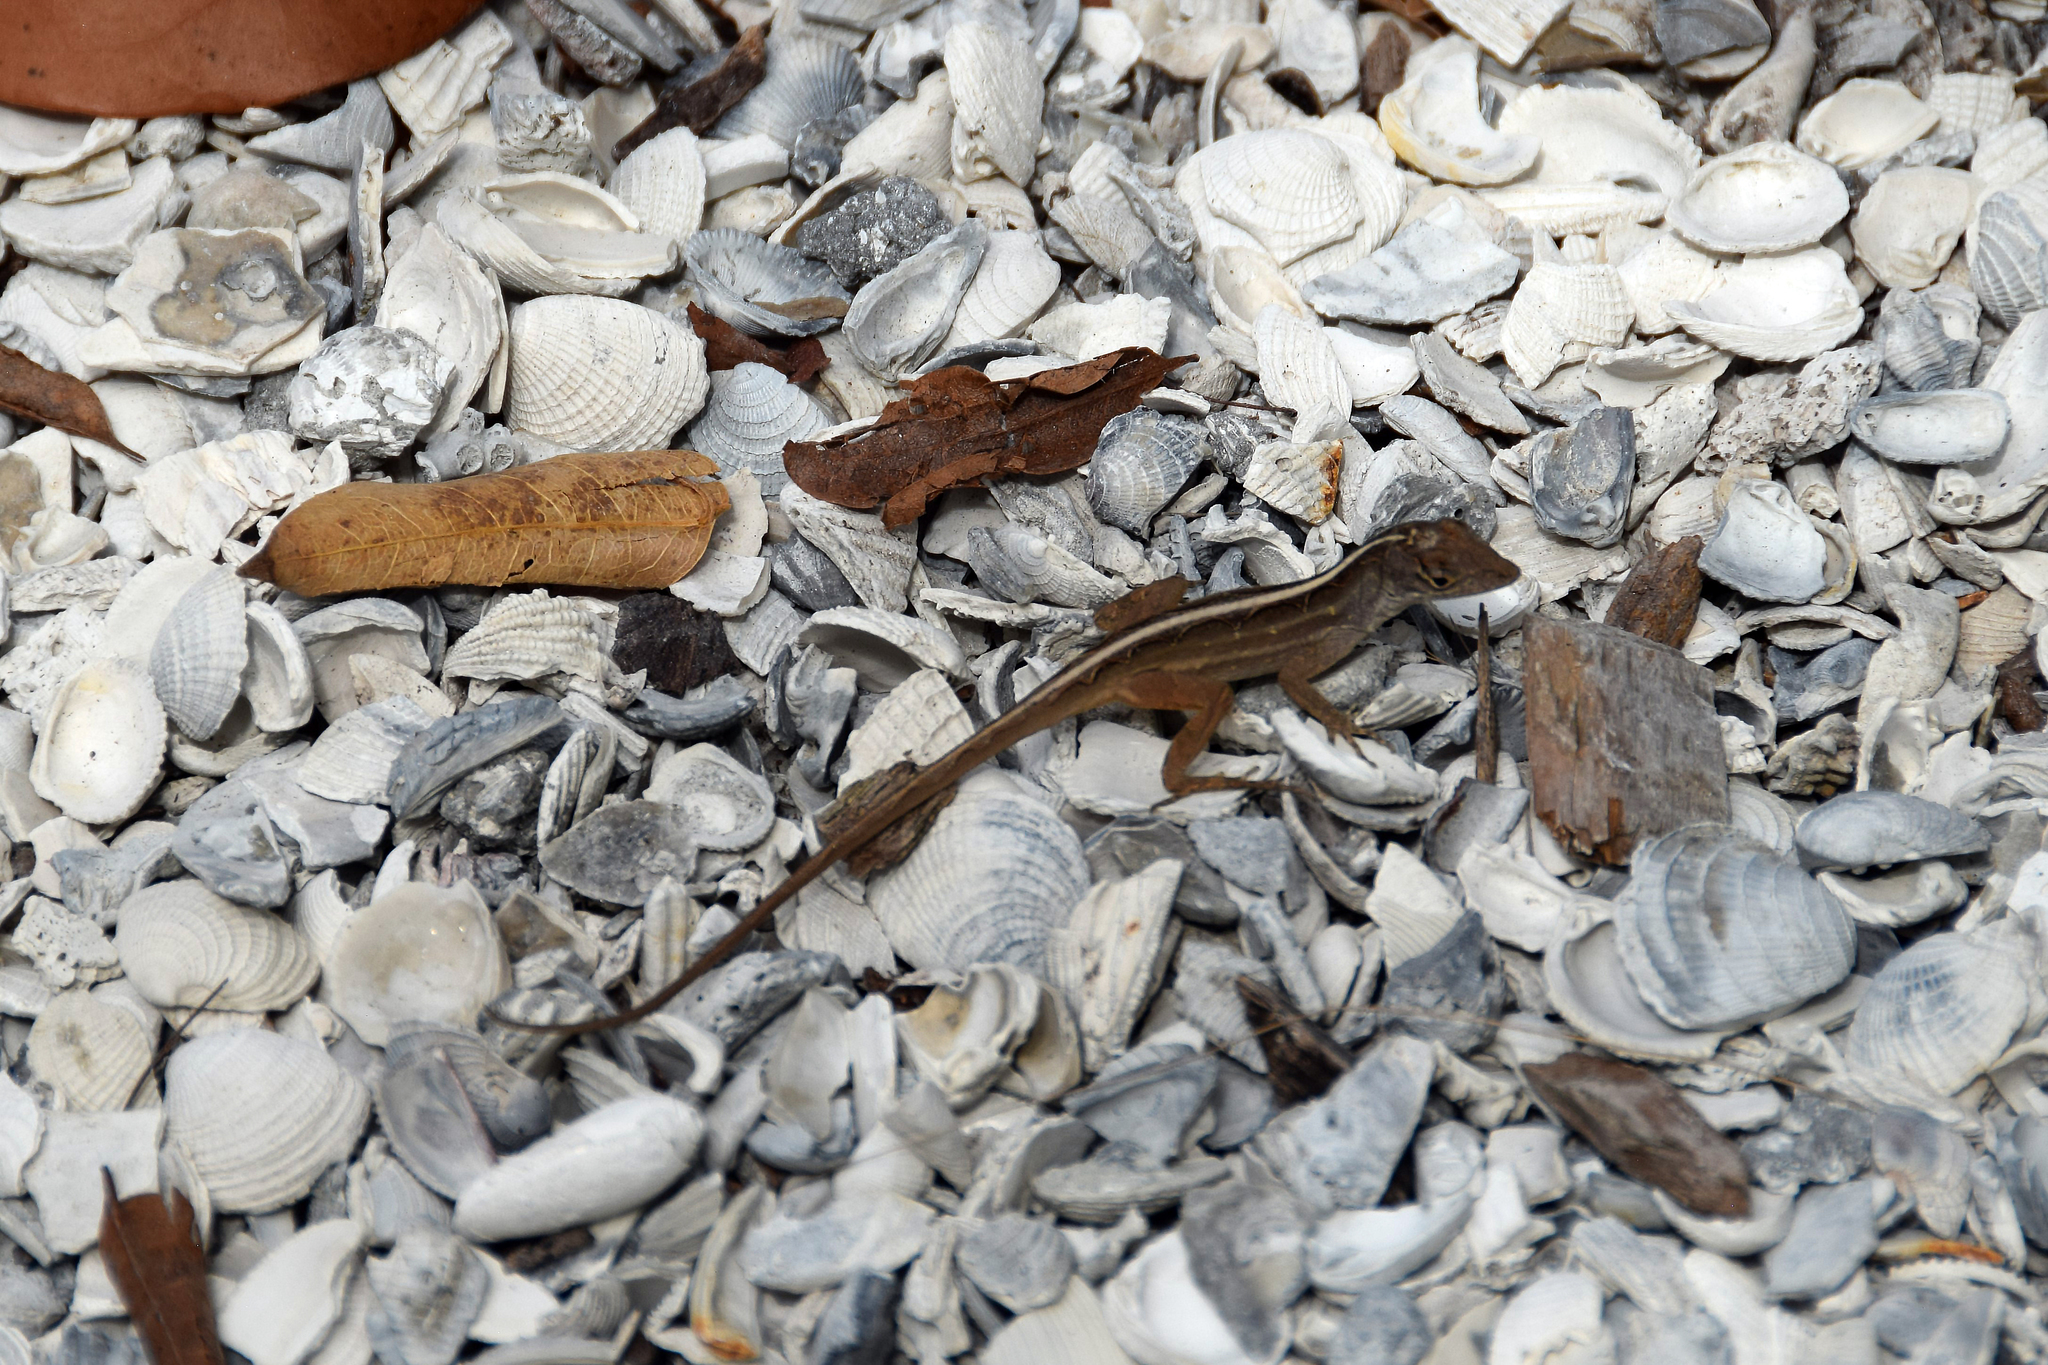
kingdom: Animalia
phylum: Chordata
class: Squamata
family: Dactyloidae
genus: Anolis
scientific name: Anolis sagrei
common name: Brown anole
